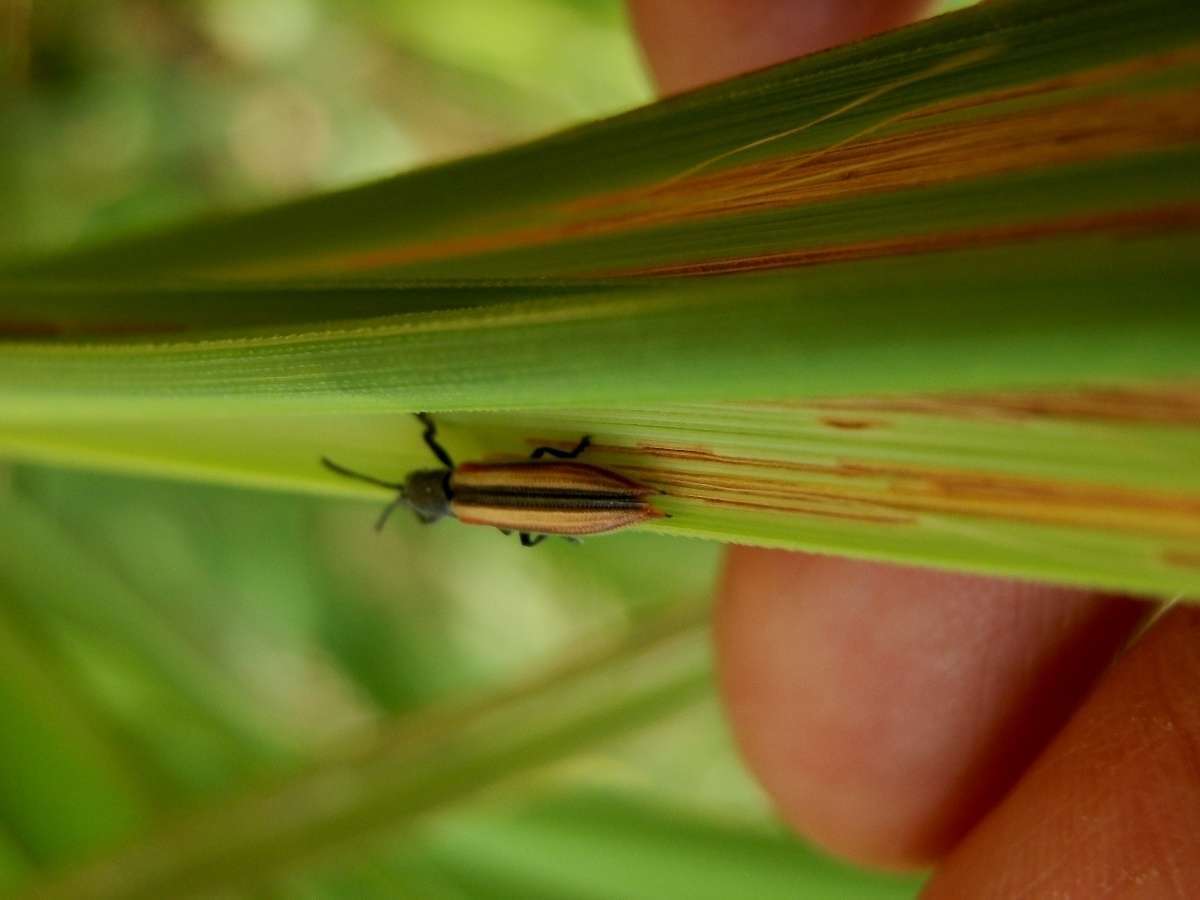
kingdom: Animalia
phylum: Arthropoda
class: Insecta
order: Coleoptera
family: Chrysomelidae
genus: Eurispa
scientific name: Eurispa vittata
